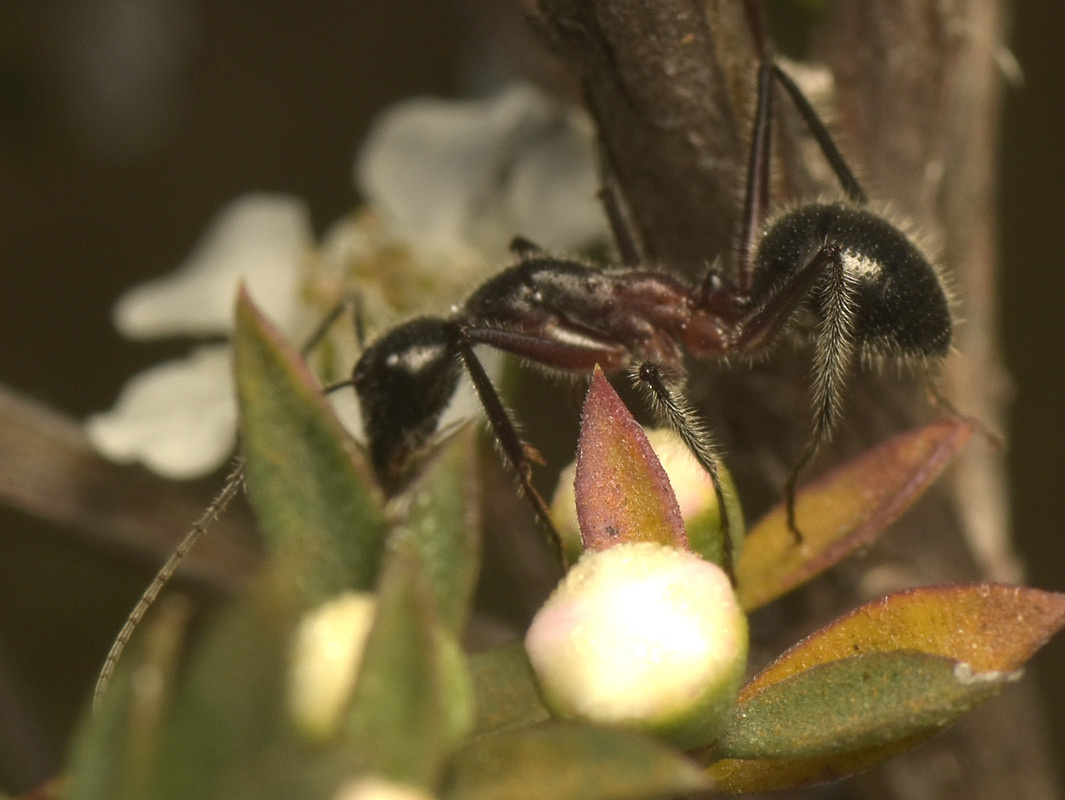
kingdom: Animalia
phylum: Arthropoda
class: Insecta
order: Hymenoptera
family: Formicidae
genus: Camponotus
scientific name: Camponotus intrepidus
